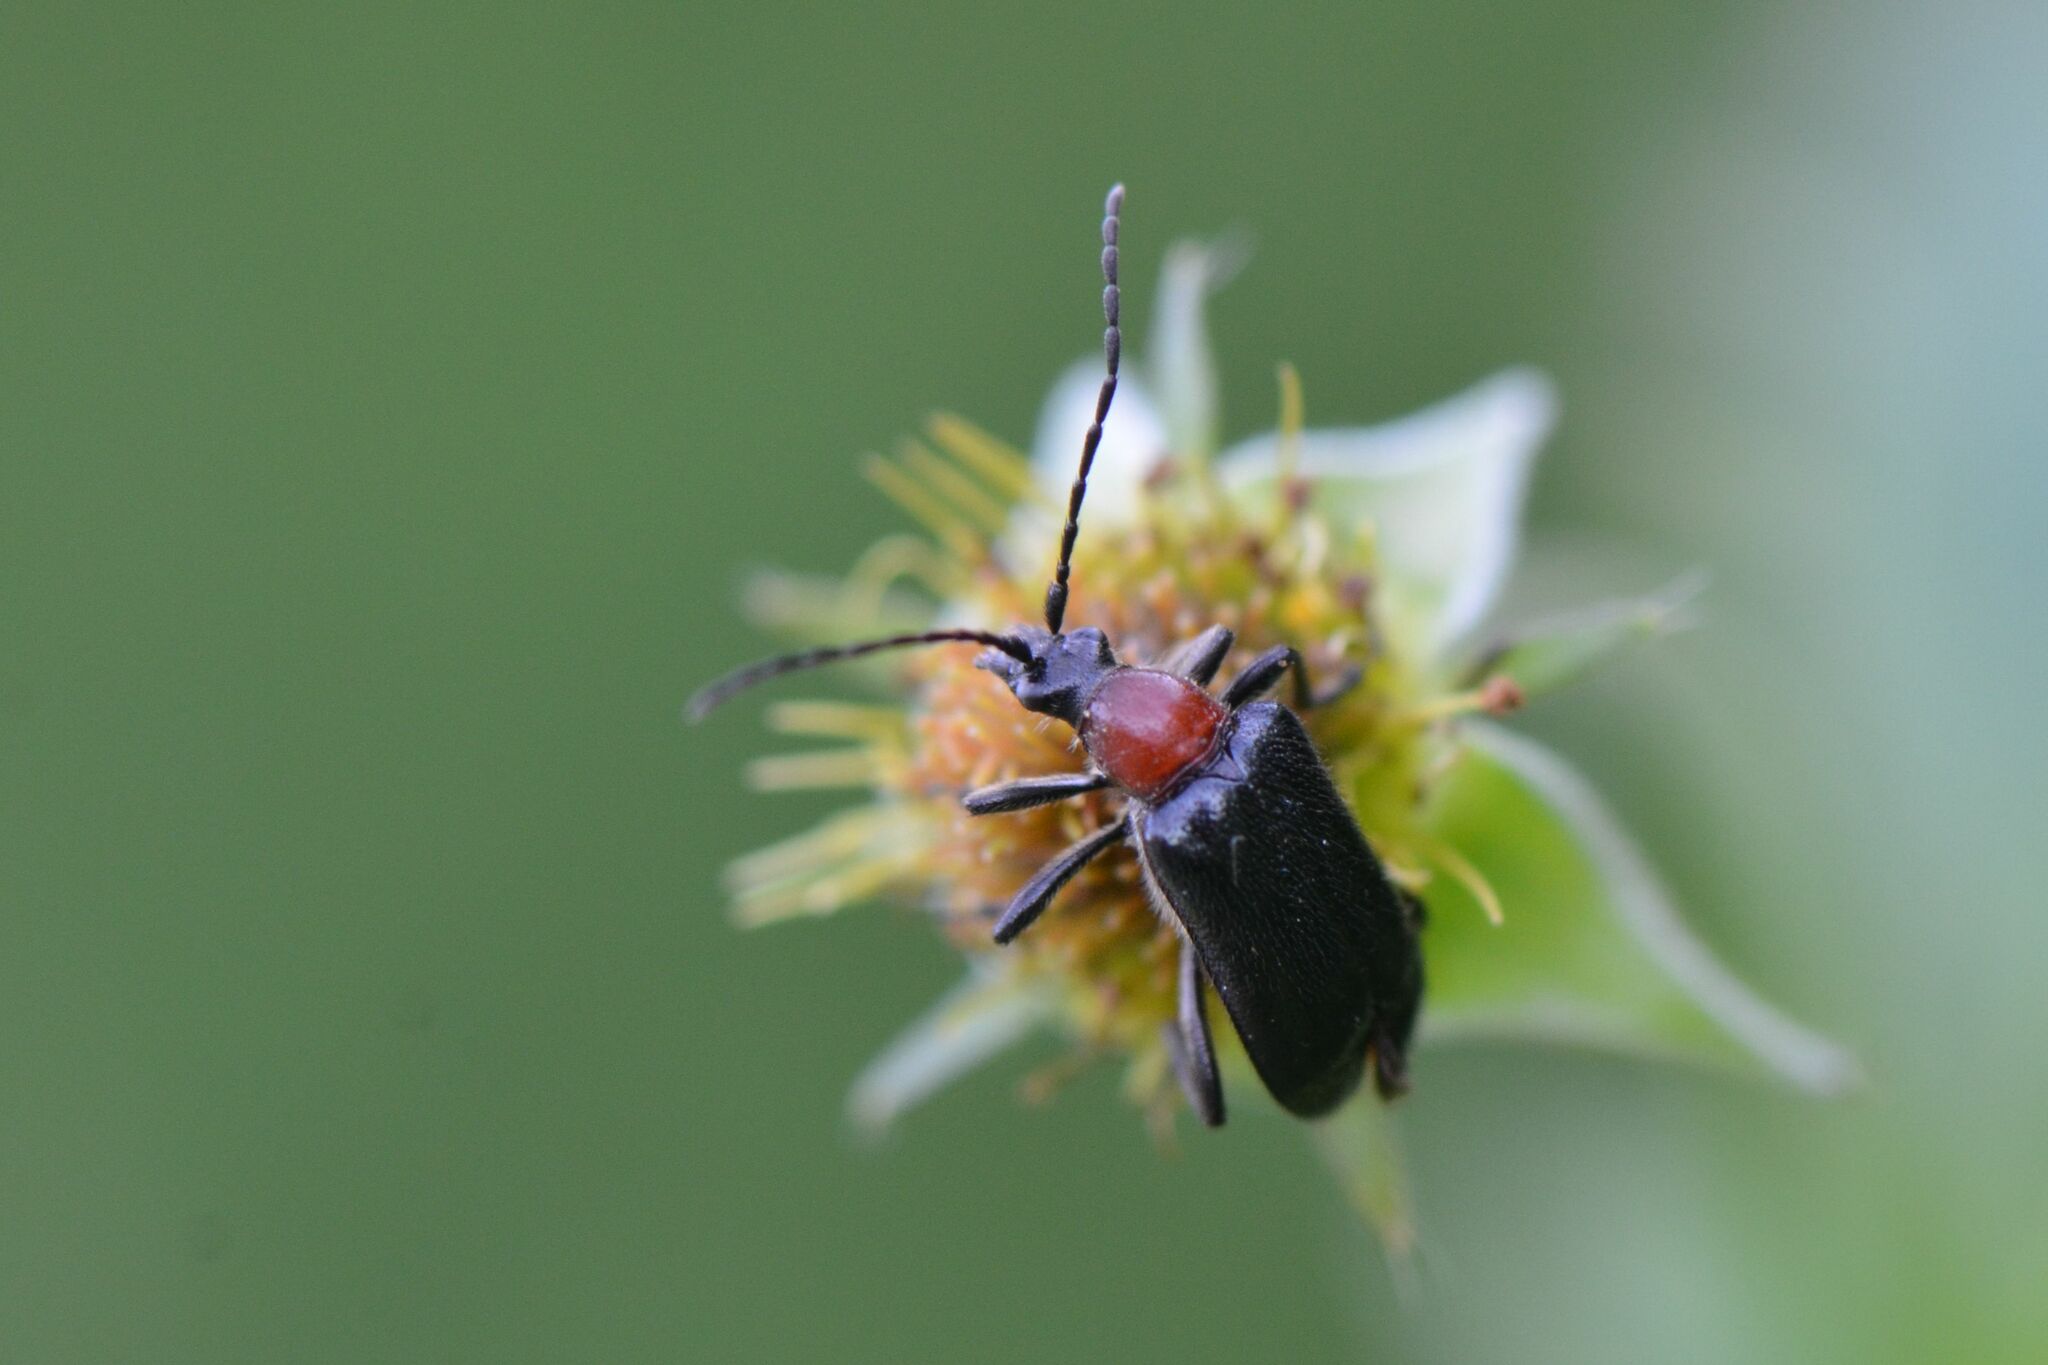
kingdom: Animalia
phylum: Arthropoda
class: Insecta
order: Coleoptera
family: Cerambycidae
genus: Dinoptera
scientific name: Dinoptera collaris
